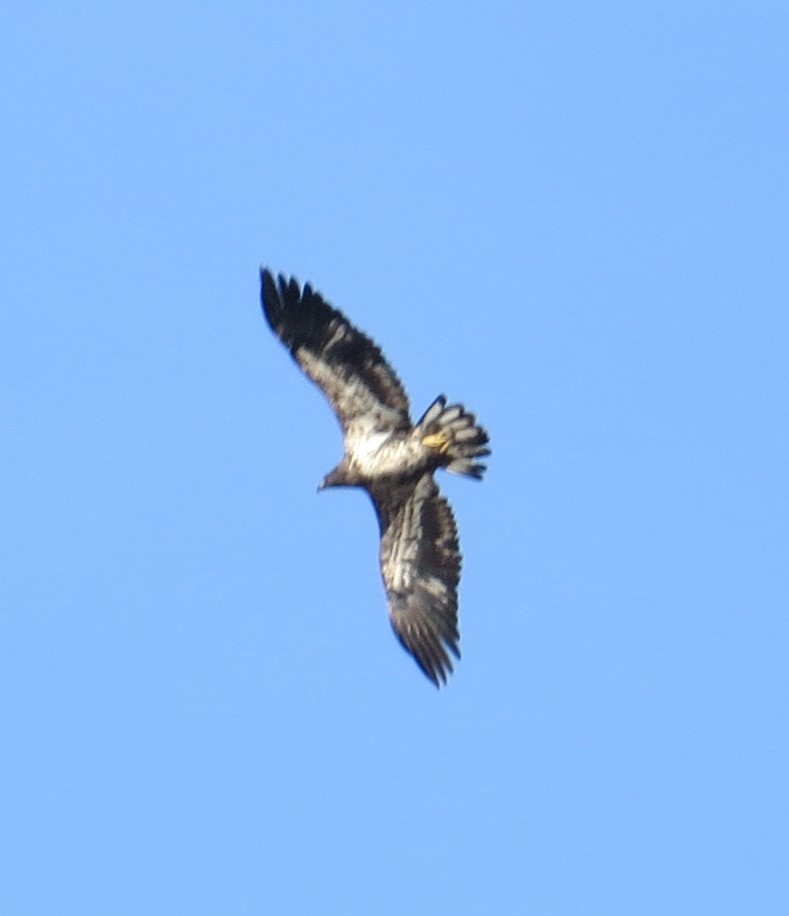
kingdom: Animalia
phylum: Chordata
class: Aves
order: Accipitriformes
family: Accipitridae
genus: Haliaeetus
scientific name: Haliaeetus leucocephalus
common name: Bald eagle
